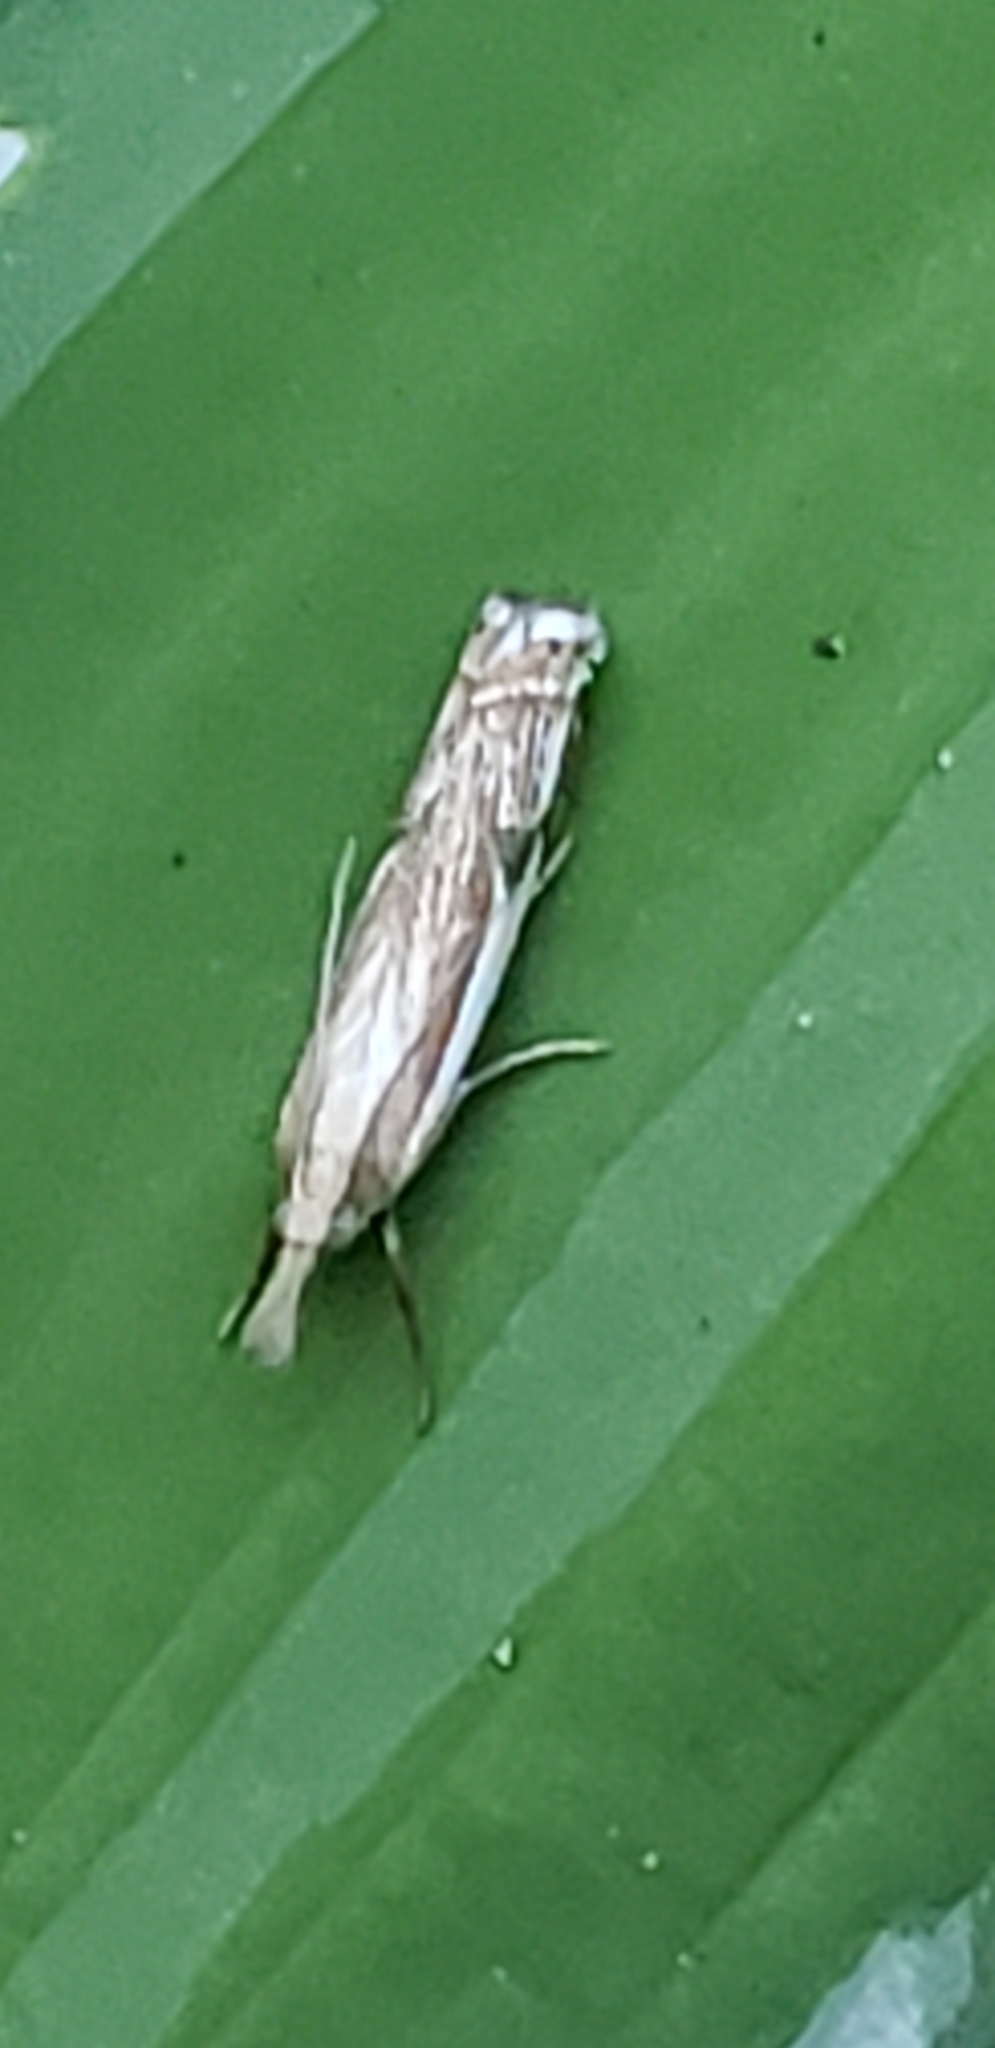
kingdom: Animalia
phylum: Arthropoda
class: Insecta
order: Lepidoptera
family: Crambidae
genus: Crambus
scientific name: Crambus agitatellus
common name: Double-banded grass-veneer
